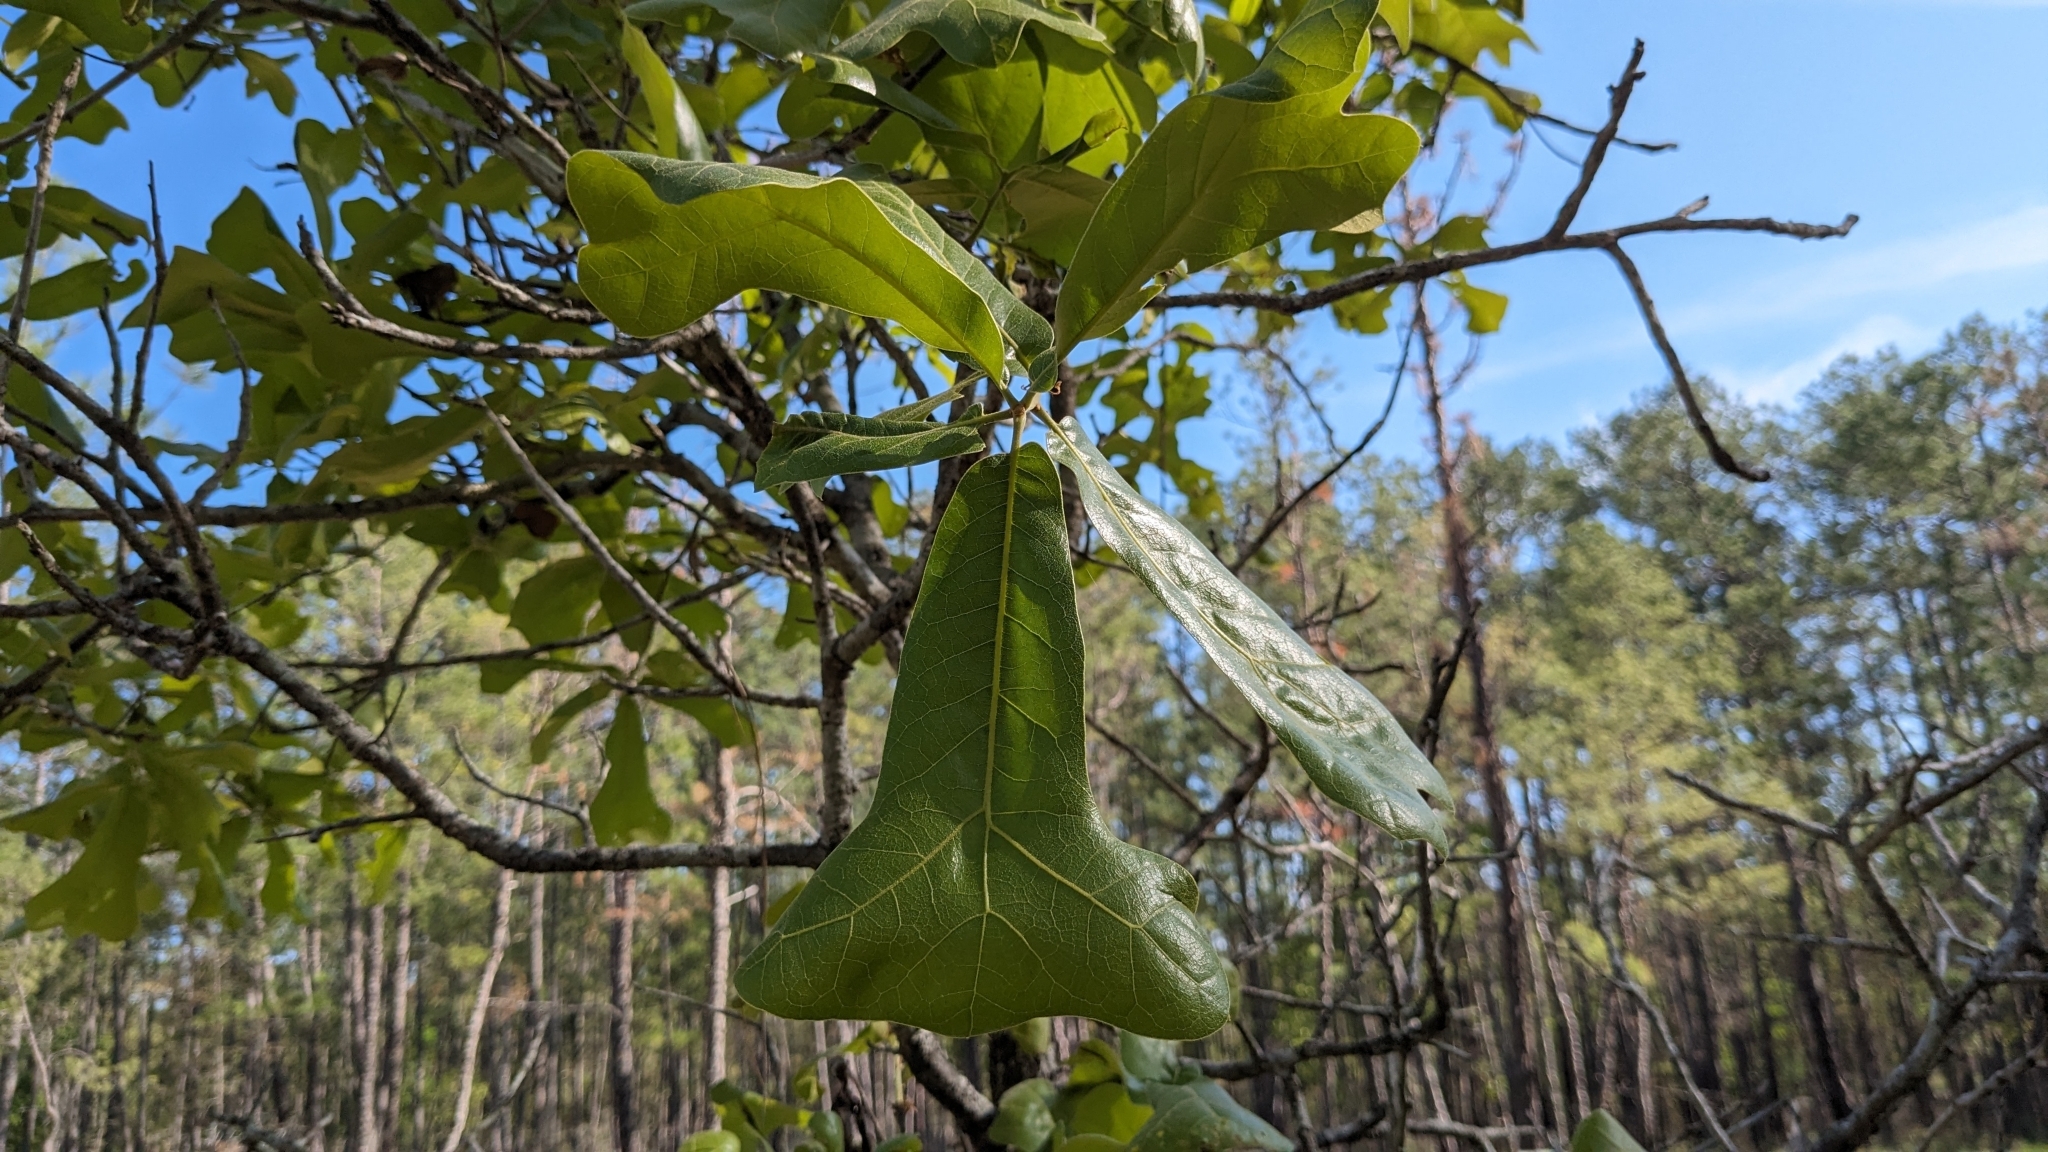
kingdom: Plantae
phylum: Tracheophyta
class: Magnoliopsida
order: Fagales
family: Fagaceae
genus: Quercus
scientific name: Quercus marilandica
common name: Blackjack oak
